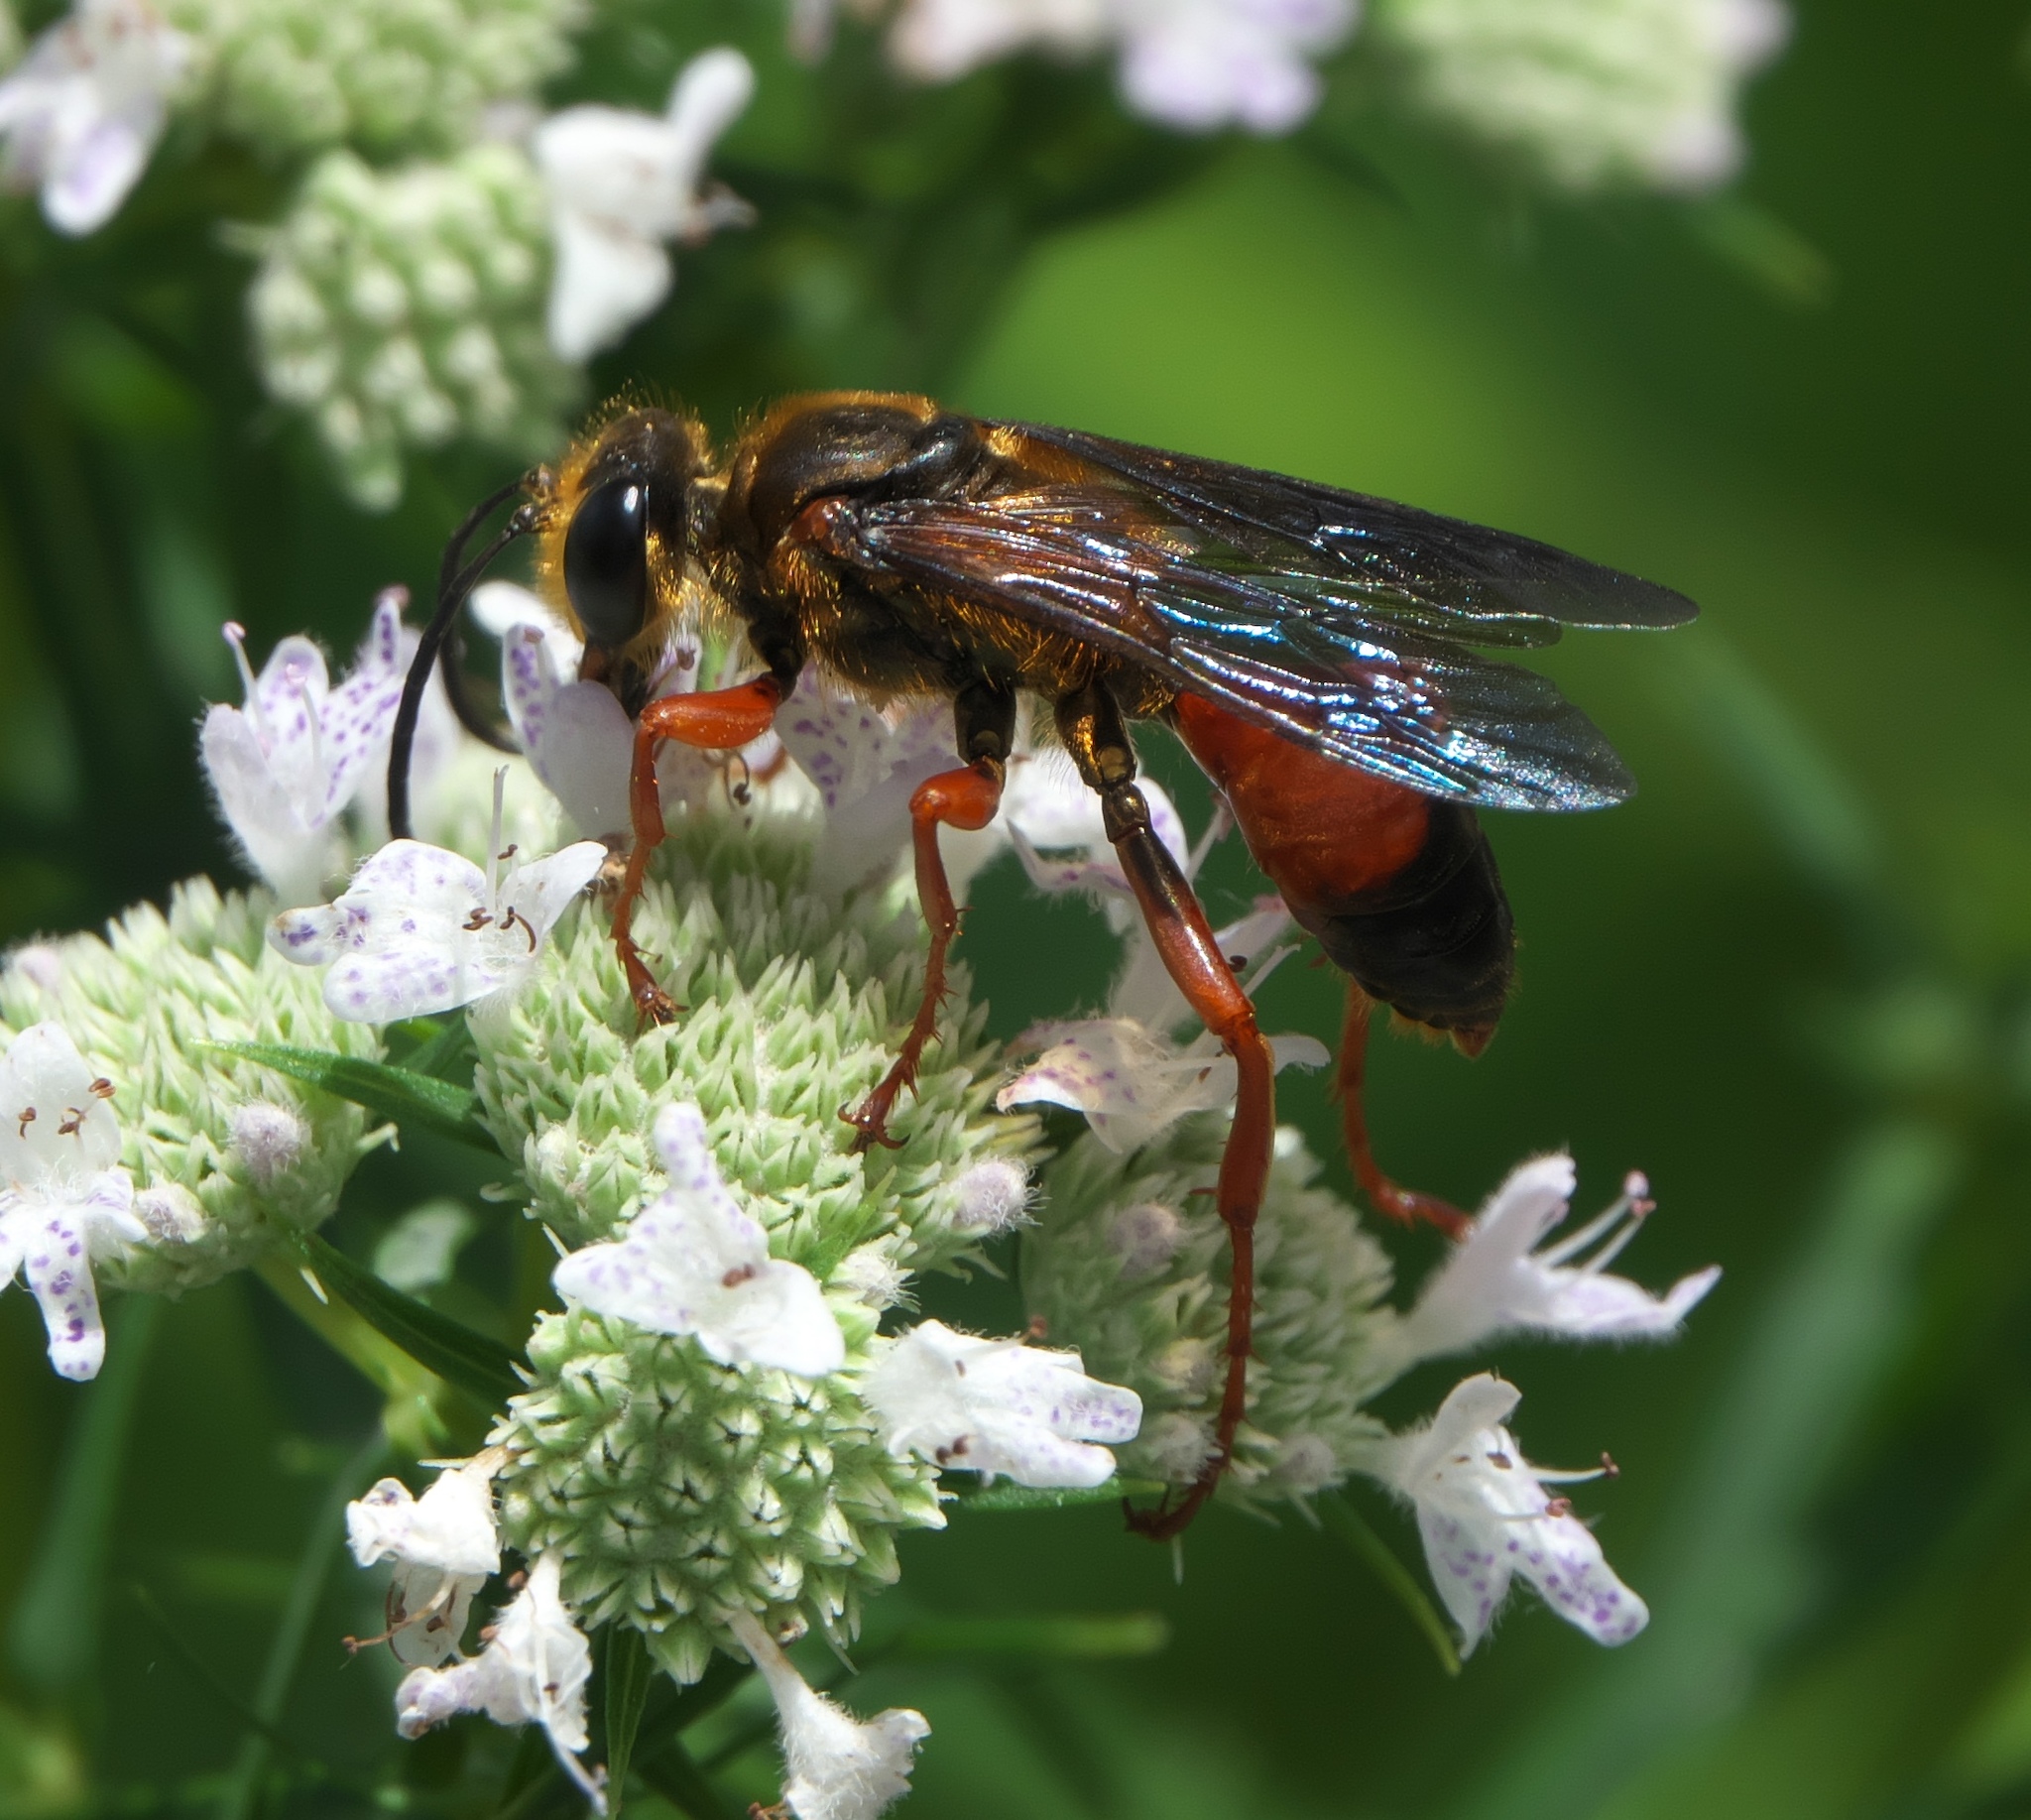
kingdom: Animalia
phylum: Arthropoda
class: Insecta
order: Hymenoptera
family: Sphecidae
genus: Sphex
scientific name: Sphex ichneumoneus
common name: Great golden digger wasp
